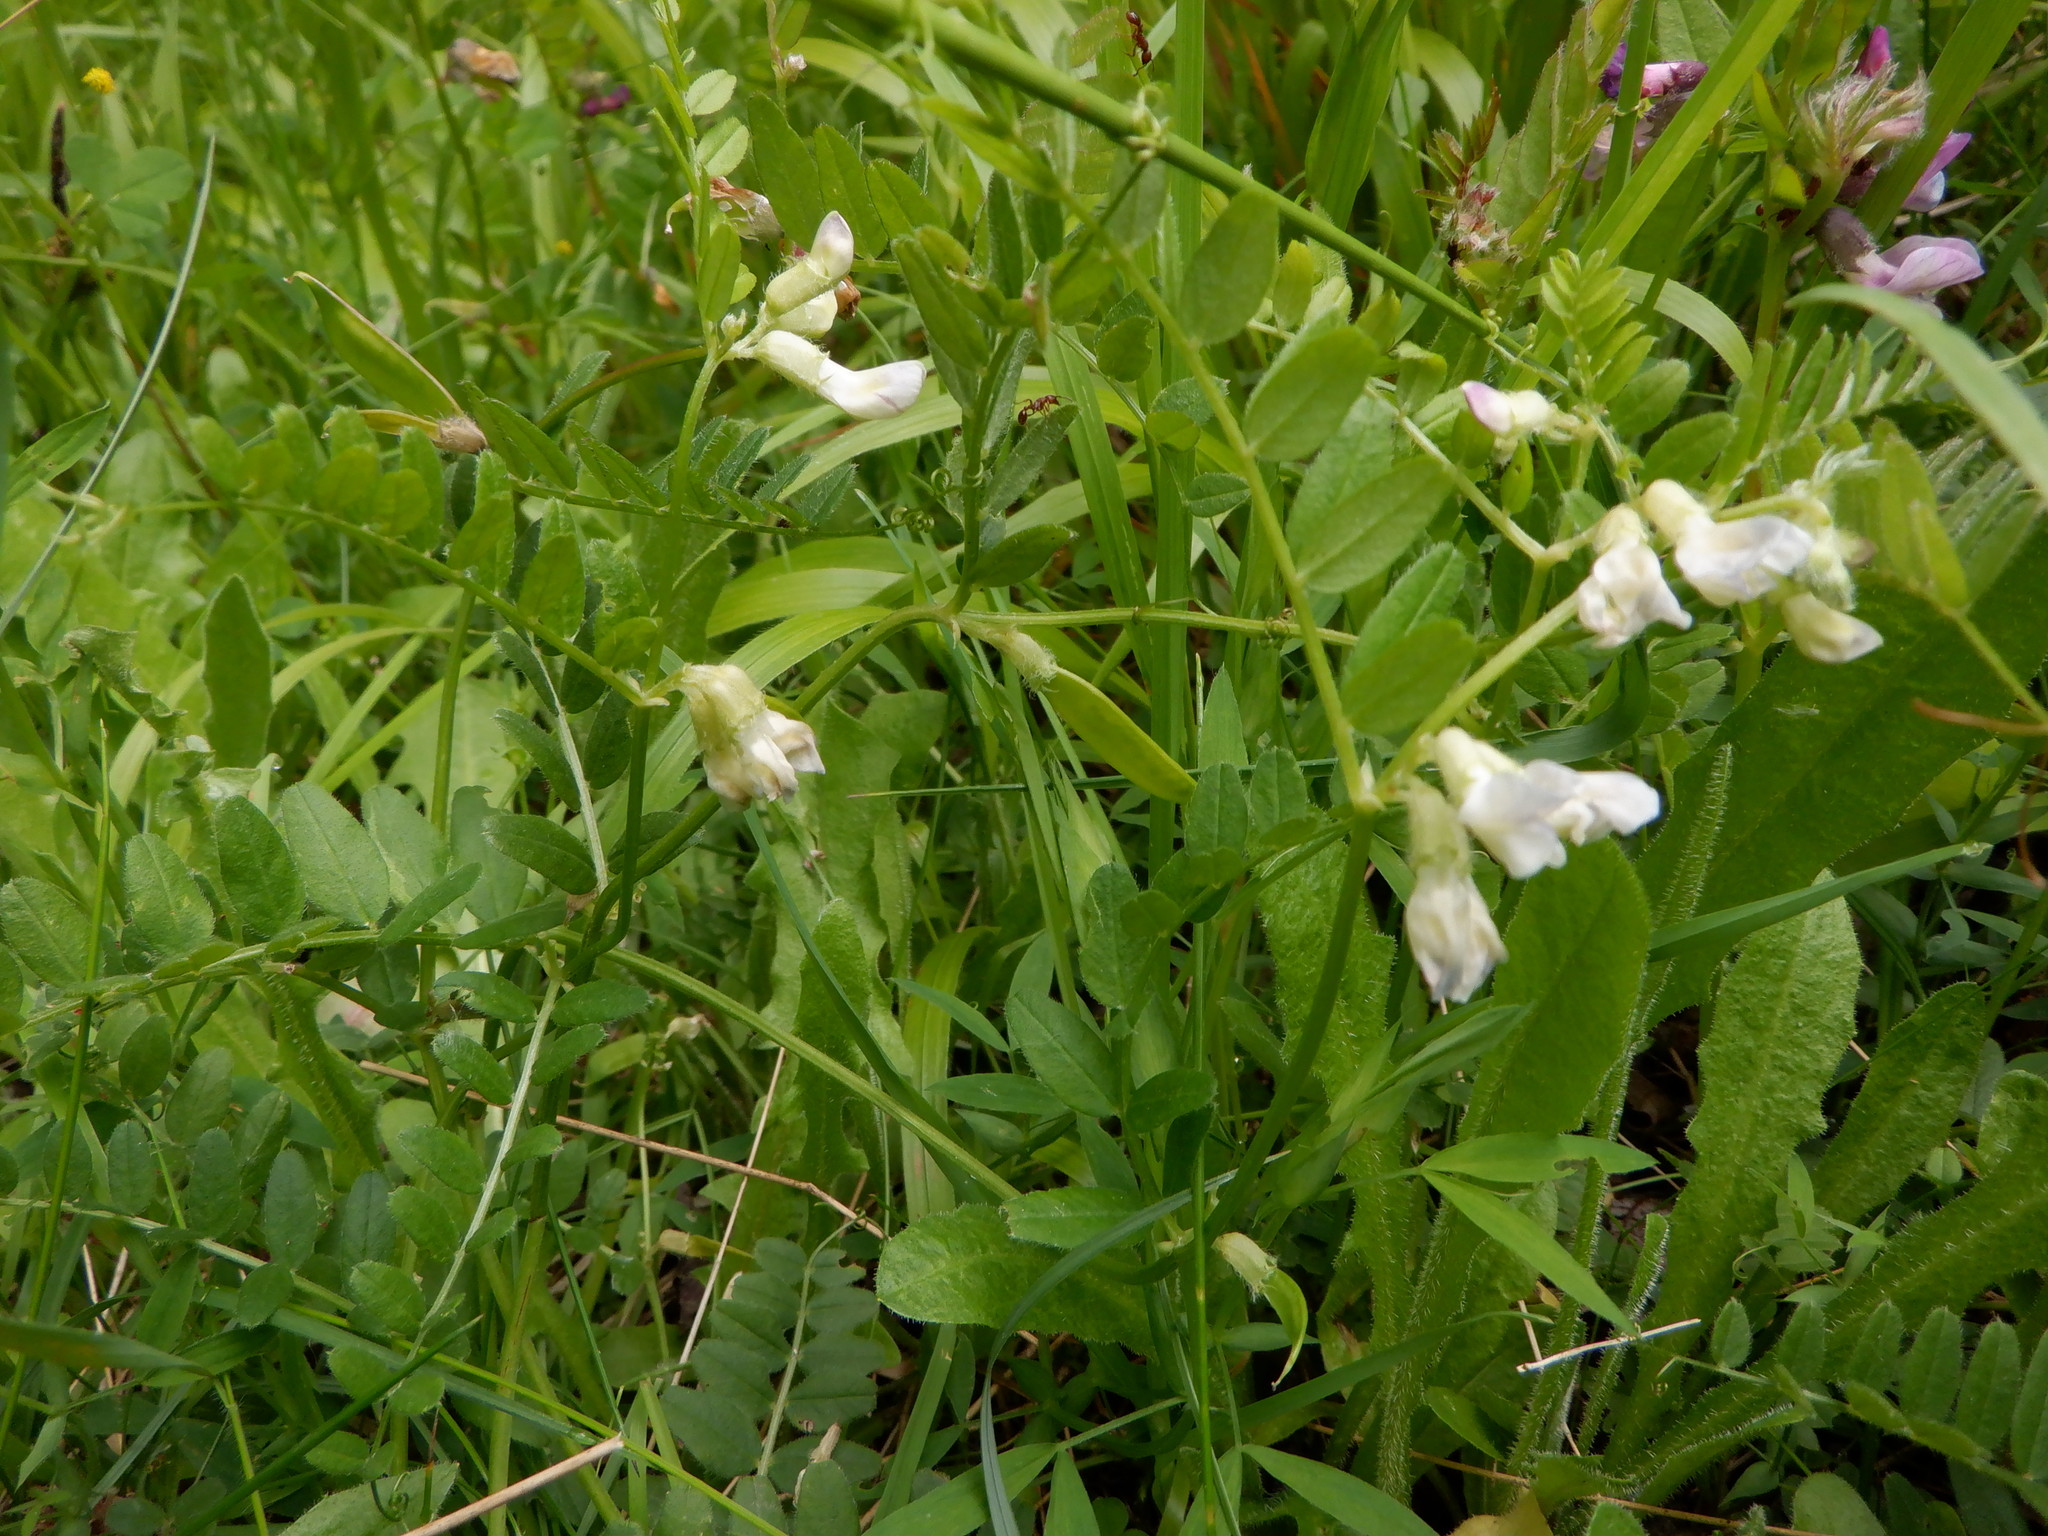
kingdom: Plantae
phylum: Tracheophyta
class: Magnoliopsida
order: Fabales
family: Fabaceae
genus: Vicia
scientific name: Vicia sepium
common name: Bush vetch
